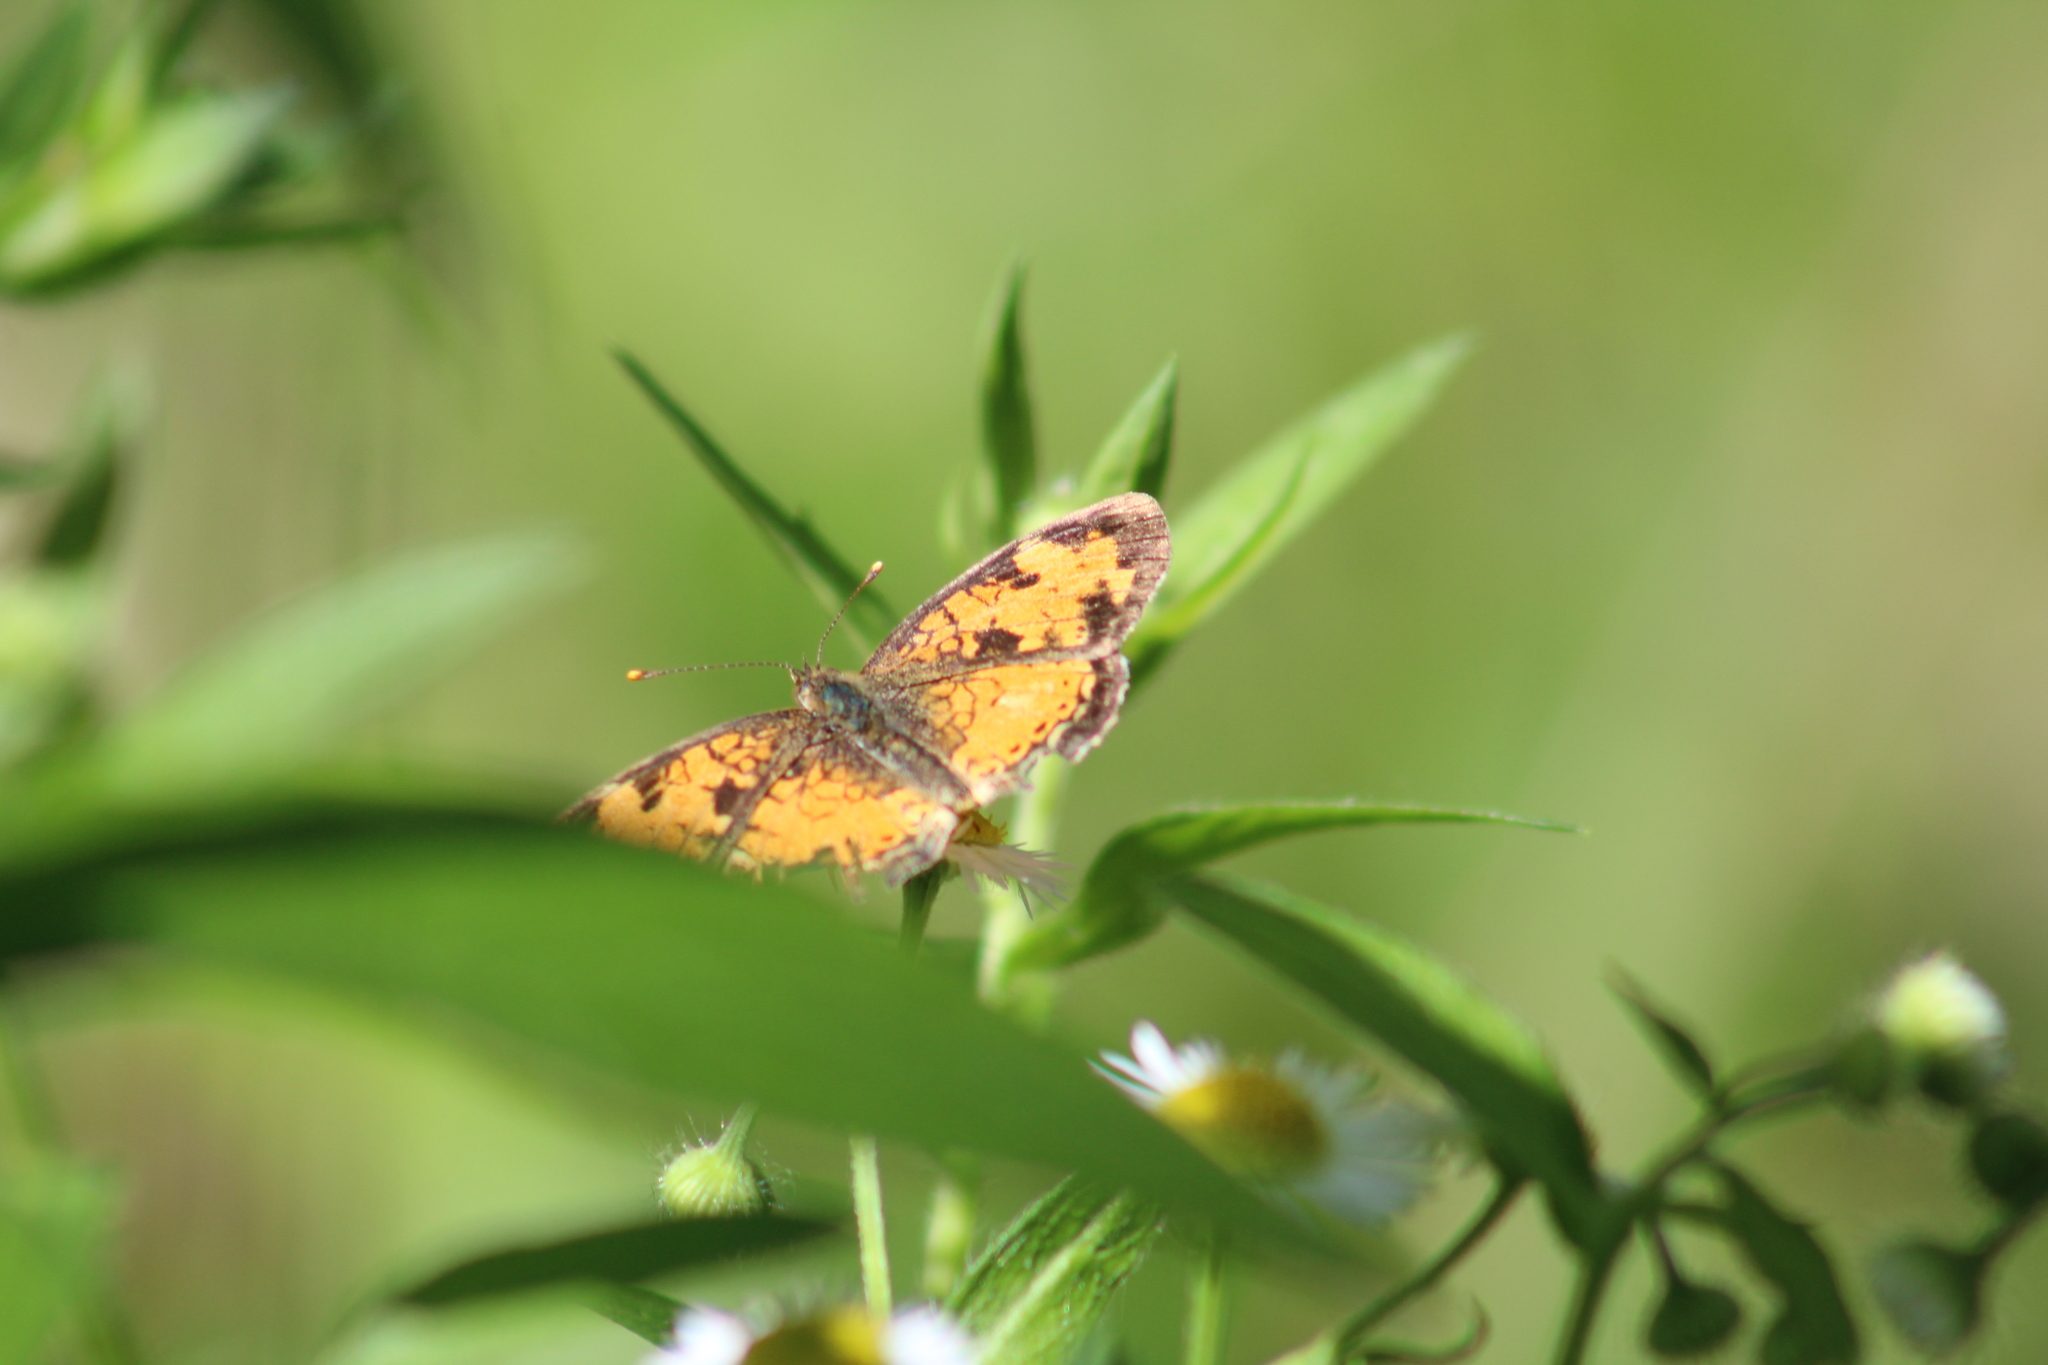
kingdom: Animalia
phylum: Arthropoda
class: Insecta
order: Lepidoptera
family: Nymphalidae
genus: Phyciodes
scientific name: Phyciodes tharos
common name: Pearl crescent
